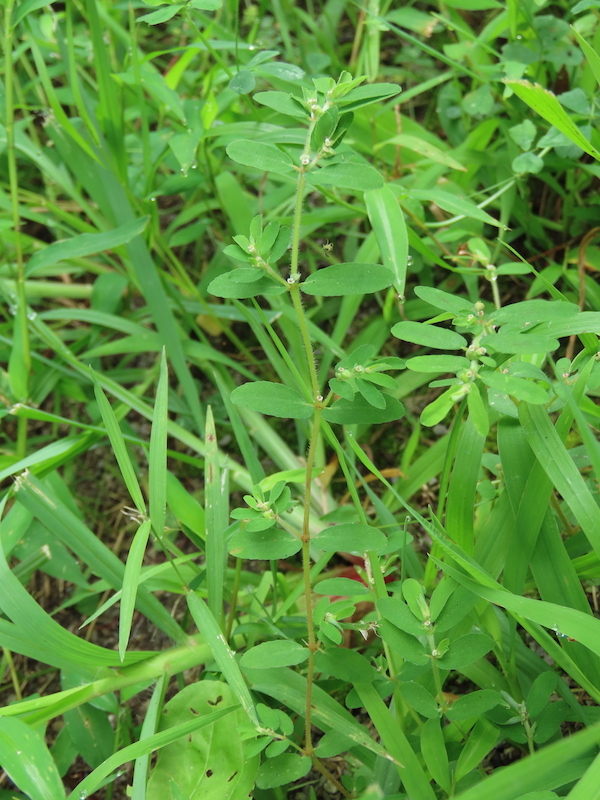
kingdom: Plantae
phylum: Tracheophyta
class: Magnoliopsida
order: Malpighiales
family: Euphorbiaceae
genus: Euphorbia
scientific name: Euphorbia maculata
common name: Spotted spurge
